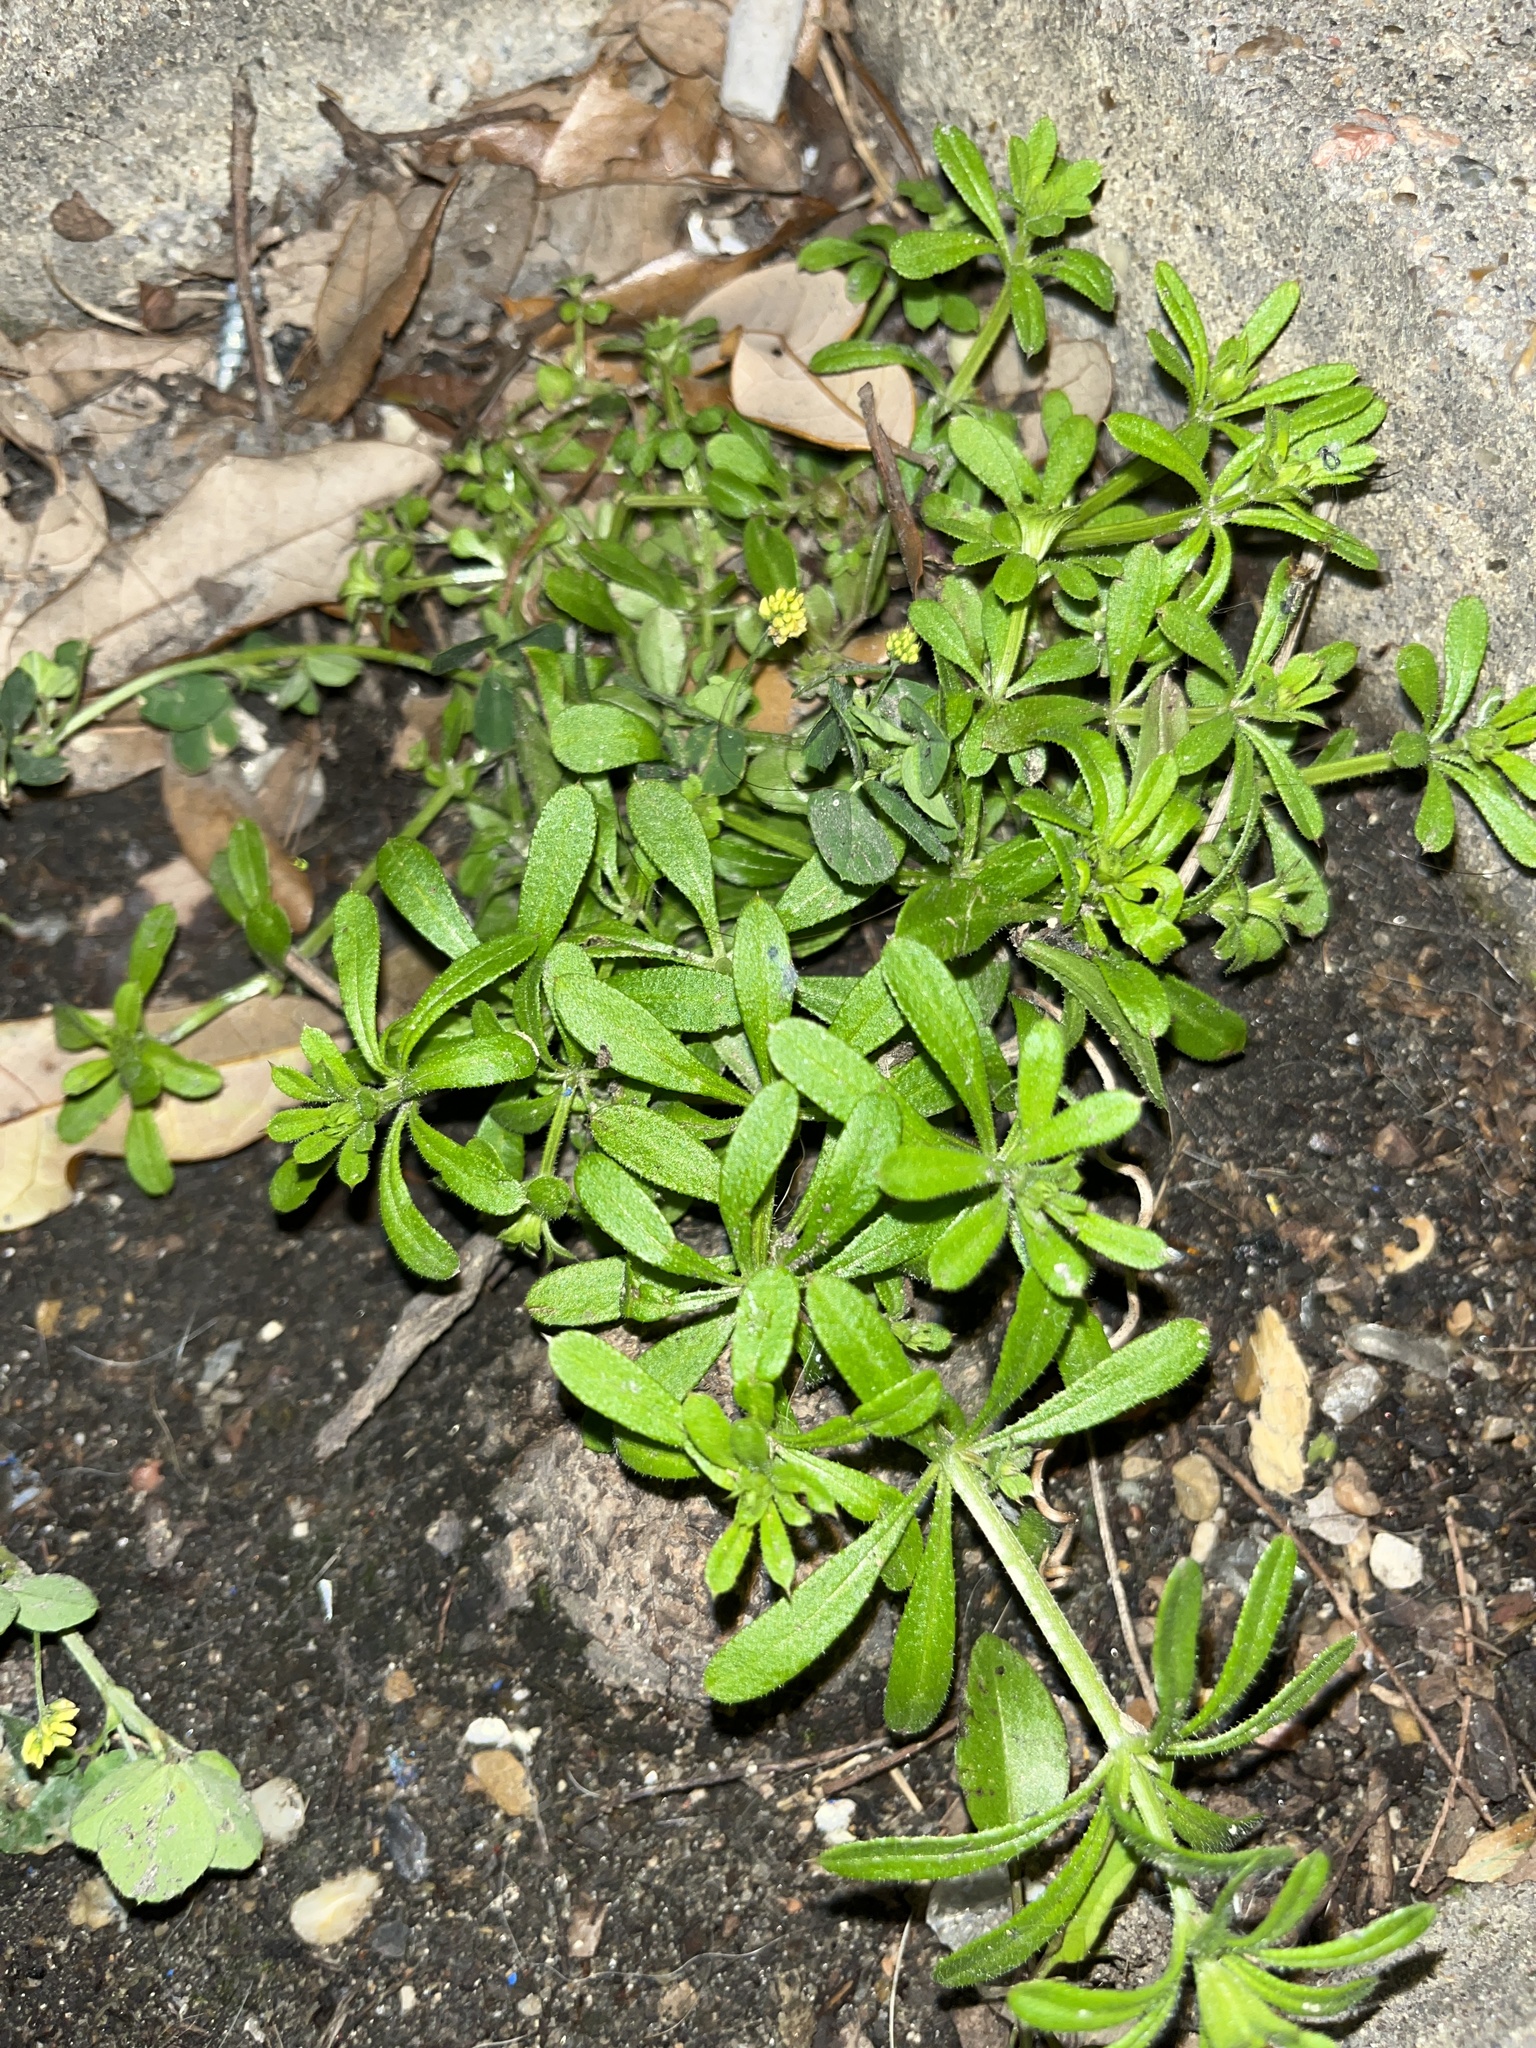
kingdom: Plantae
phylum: Tracheophyta
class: Magnoliopsida
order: Gentianales
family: Rubiaceae
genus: Galium
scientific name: Galium aparine
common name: Cleavers
